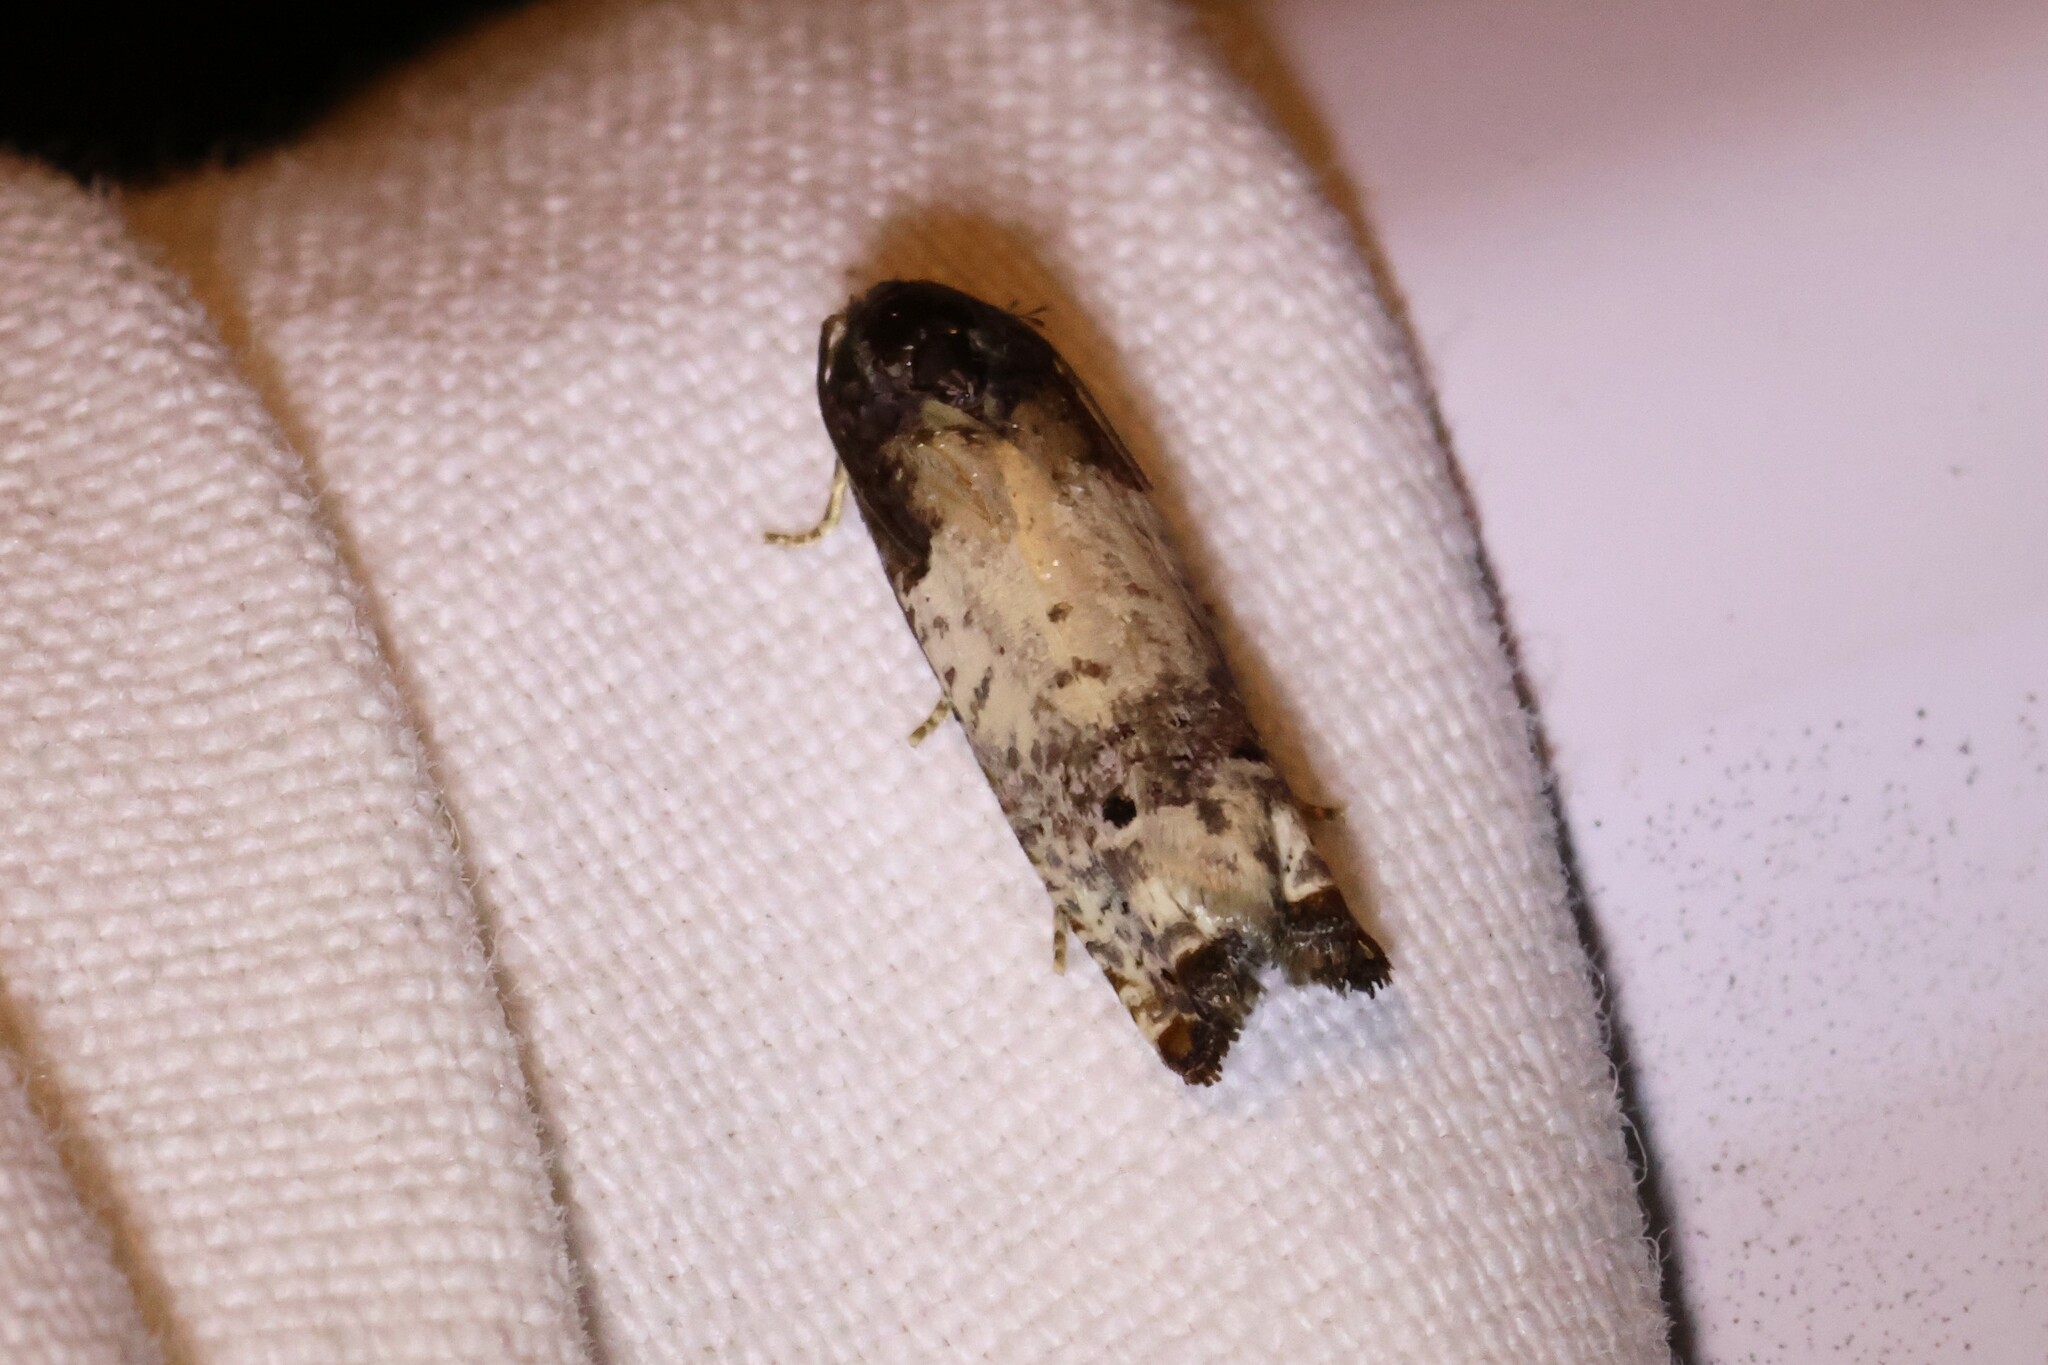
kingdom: Animalia
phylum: Arthropoda
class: Insecta
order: Lepidoptera
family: Tortricidae
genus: Epiblema
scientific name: Epiblema scudderiana
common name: Goldenrod gall moth
